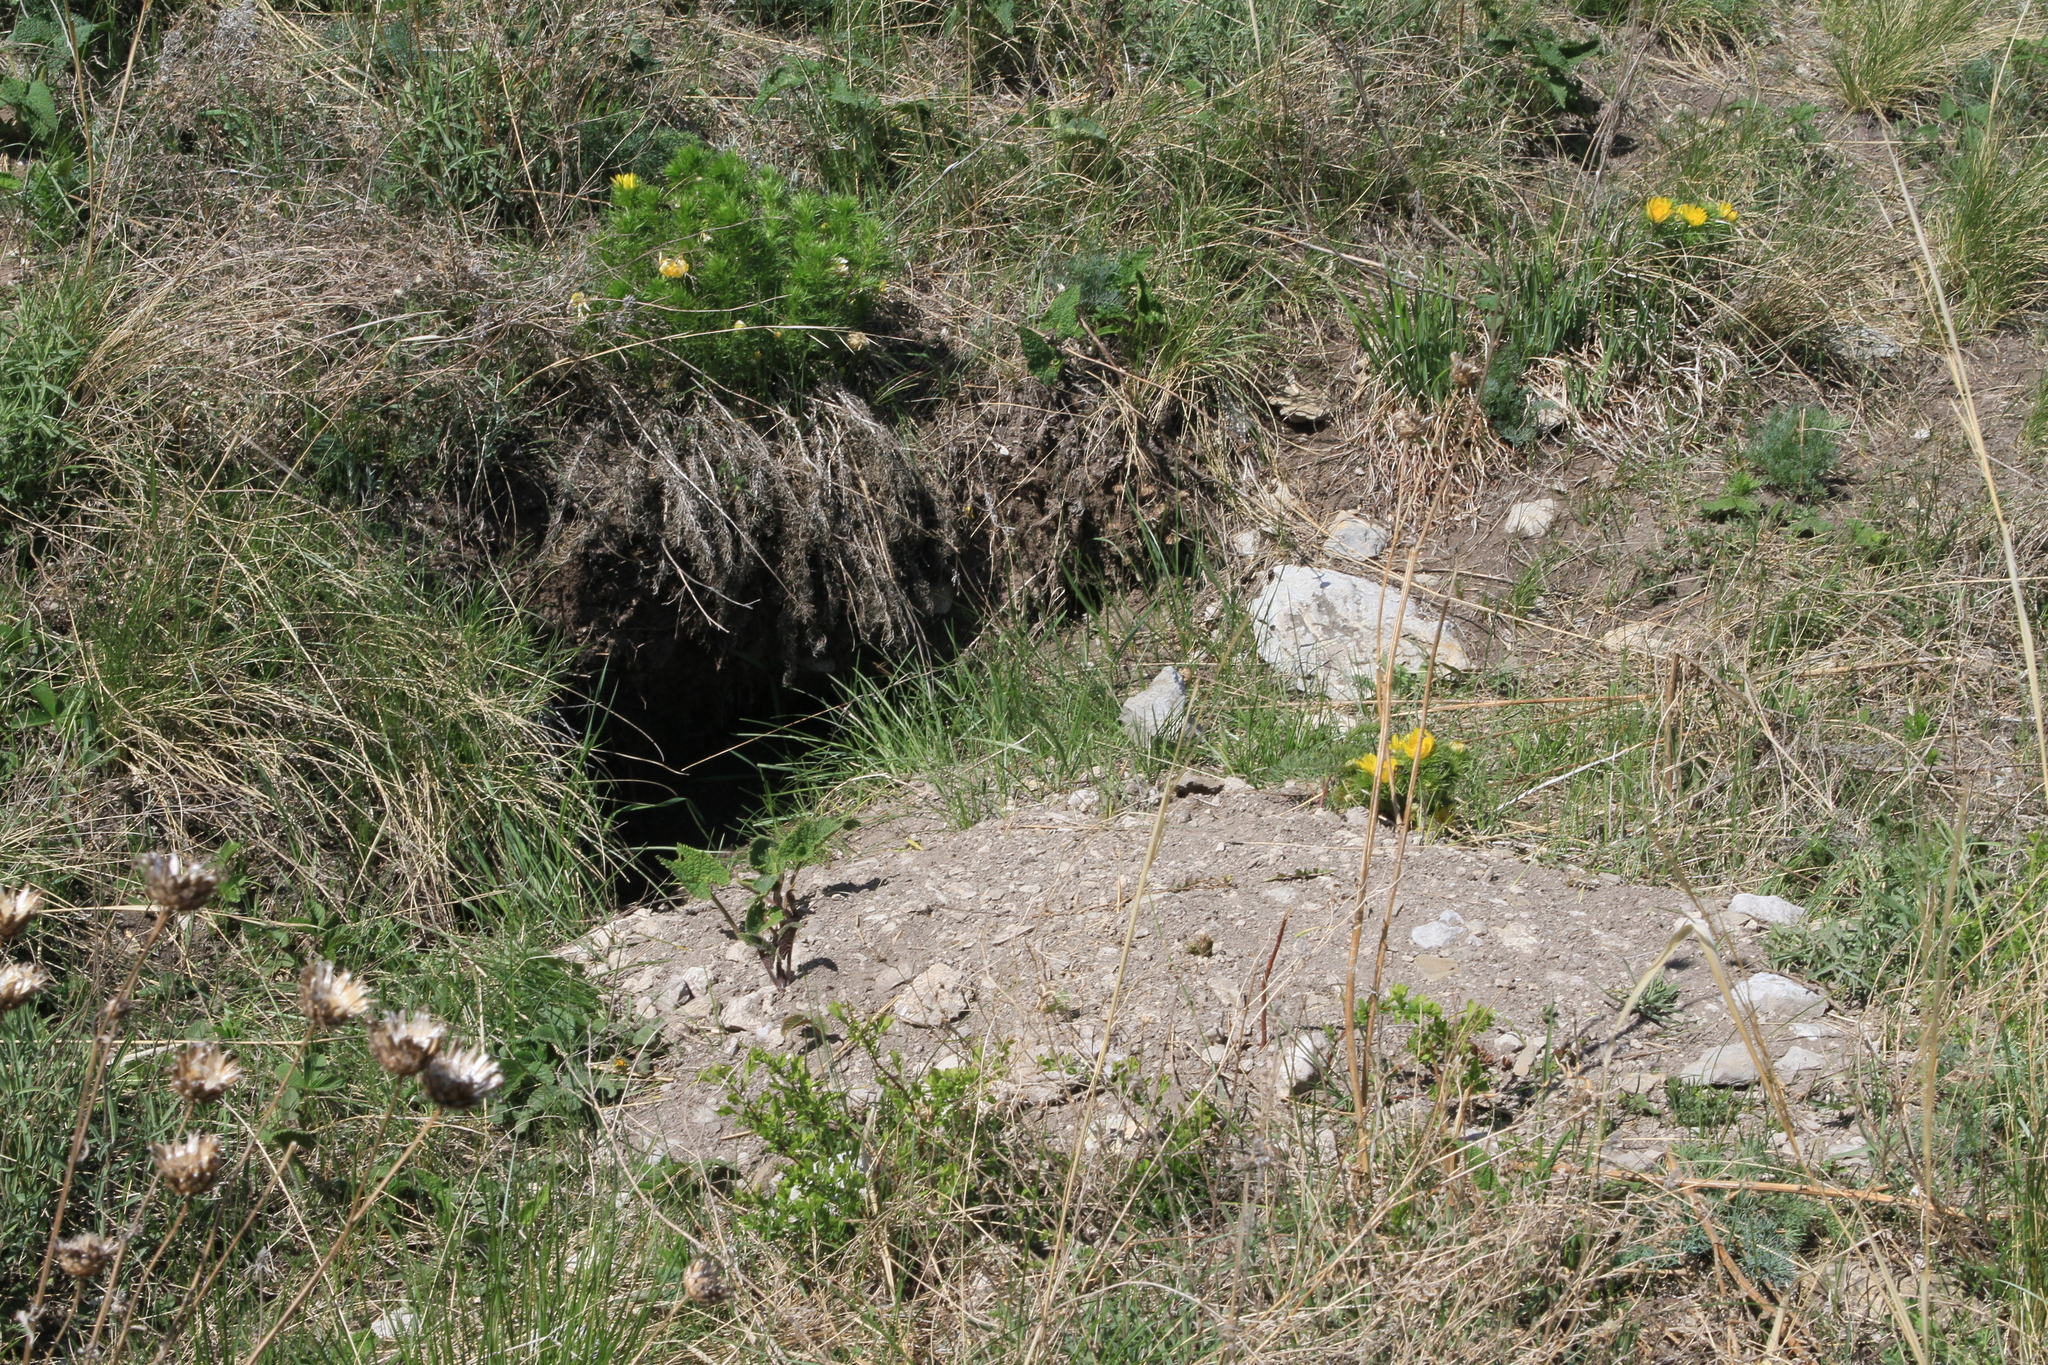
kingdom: Animalia
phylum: Chordata
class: Mammalia
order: Rodentia
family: Sciuridae
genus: Marmota
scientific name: Marmota kastschenkoi
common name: Forest steppe marmot
